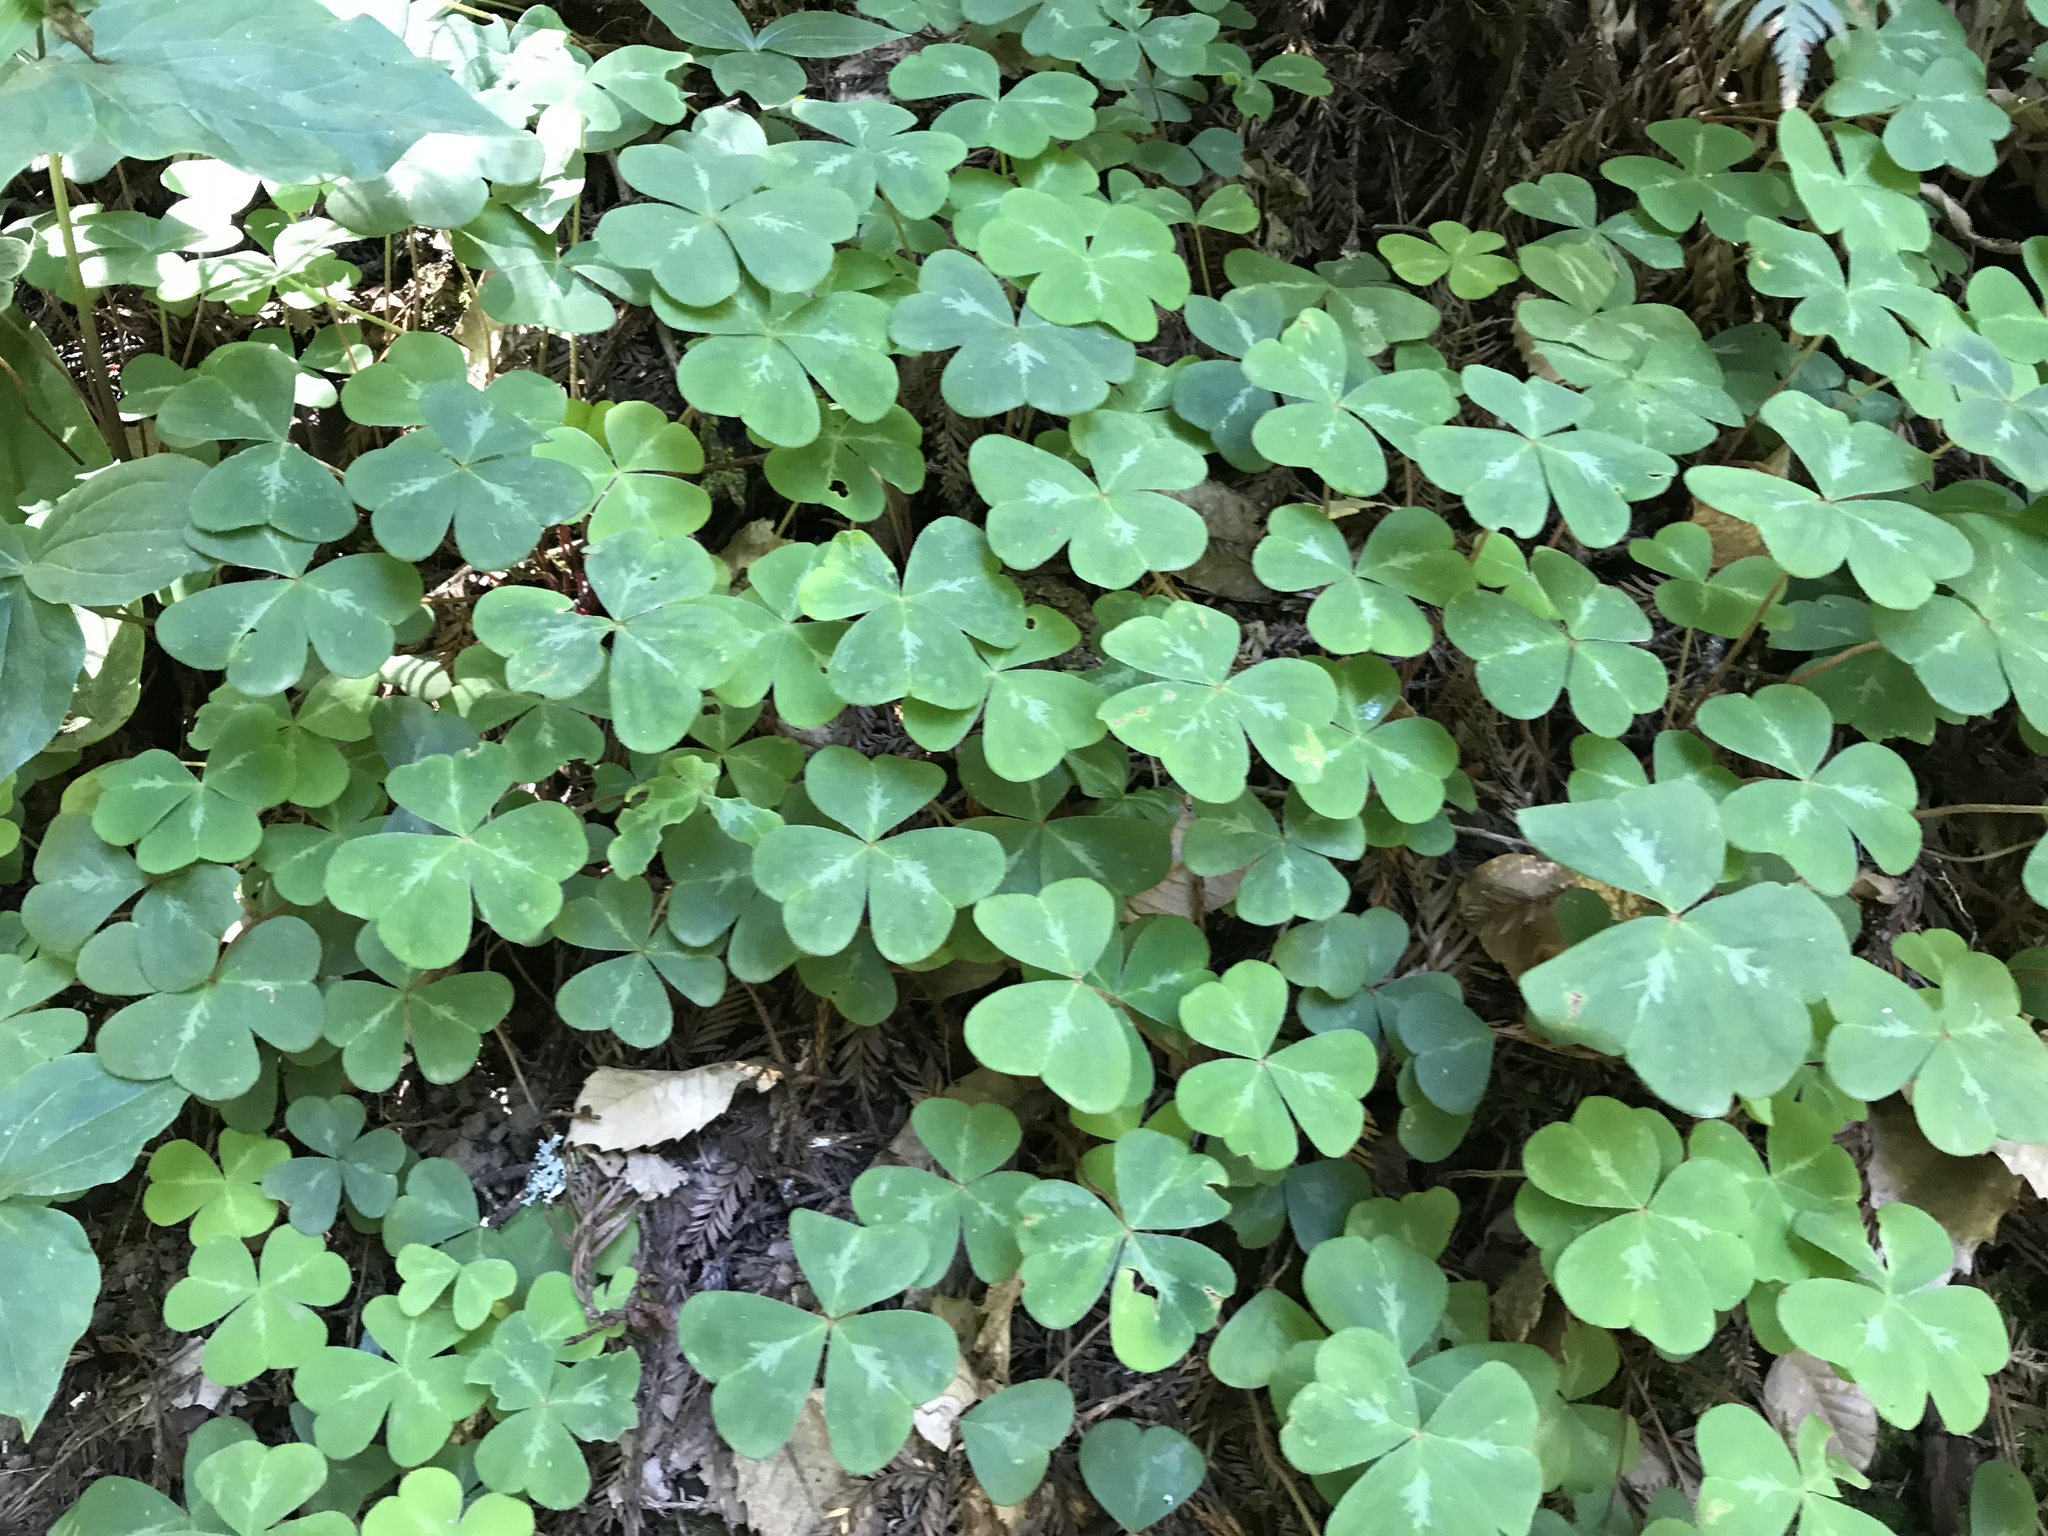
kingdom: Plantae
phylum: Tracheophyta
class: Magnoliopsida
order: Oxalidales
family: Oxalidaceae
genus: Oxalis
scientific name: Oxalis oregana
